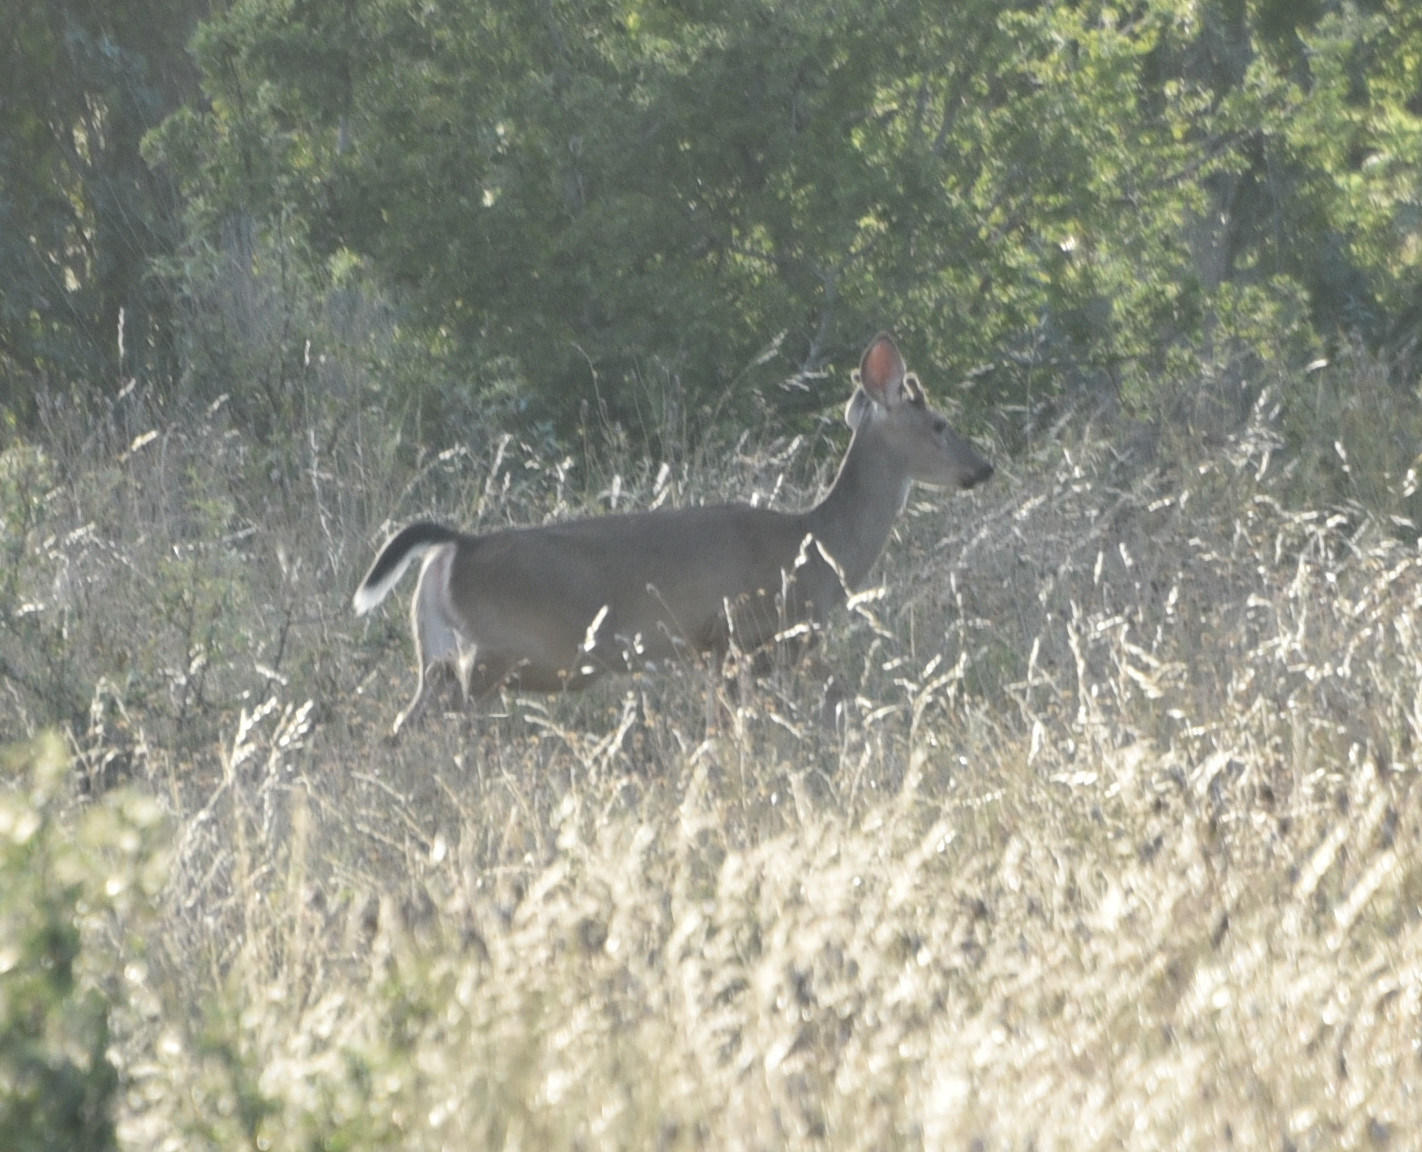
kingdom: Animalia
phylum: Chordata
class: Mammalia
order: Artiodactyla
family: Cervidae
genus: Odocoileus
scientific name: Odocoileus virginianus
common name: White-tailed deer
